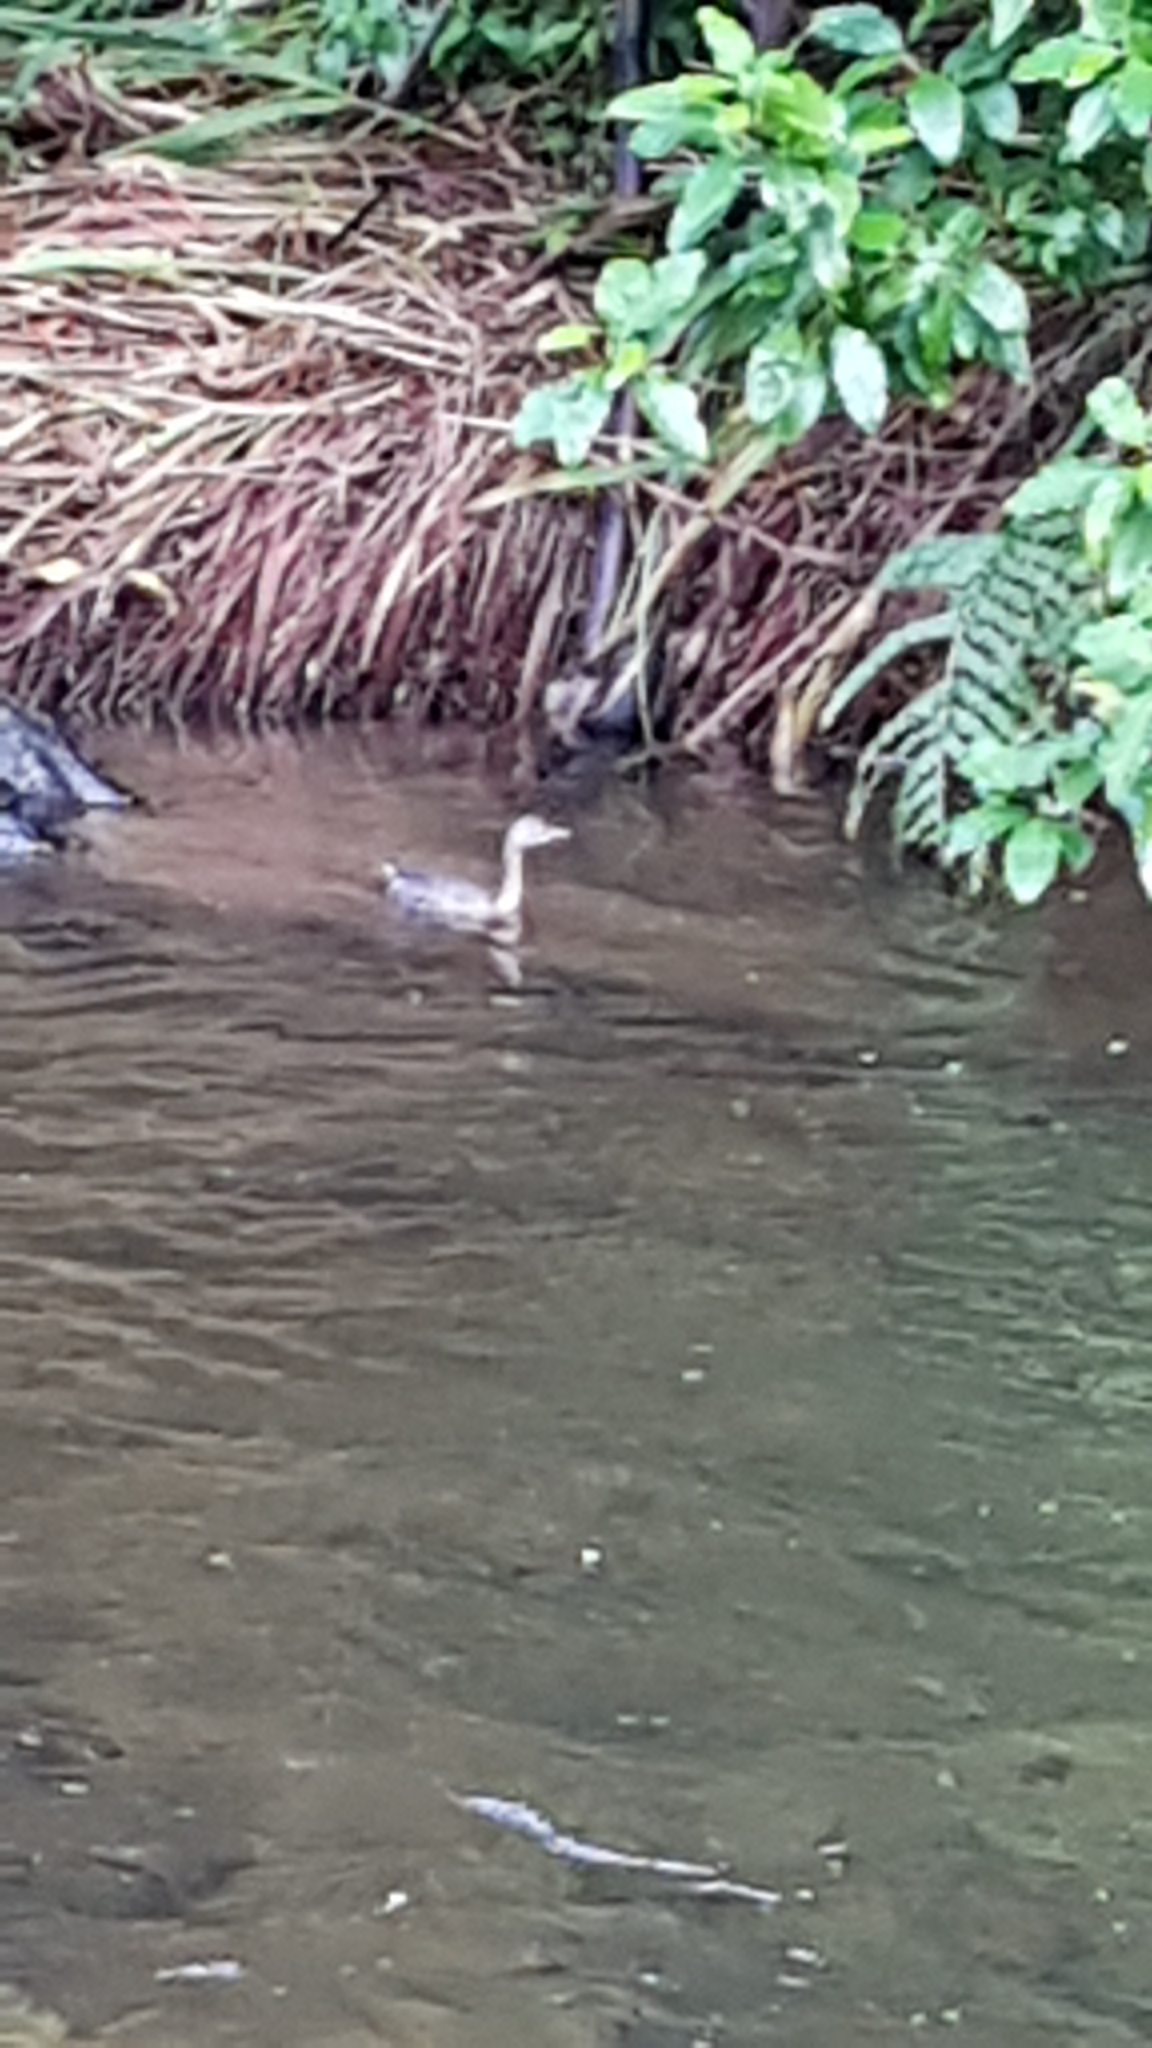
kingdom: Animalia
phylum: Chordata
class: Aves
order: Podicipediformes
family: Podicipedidae
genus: Poliocephalus
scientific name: Poliocephalus rufopectus
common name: New zealand grebe
